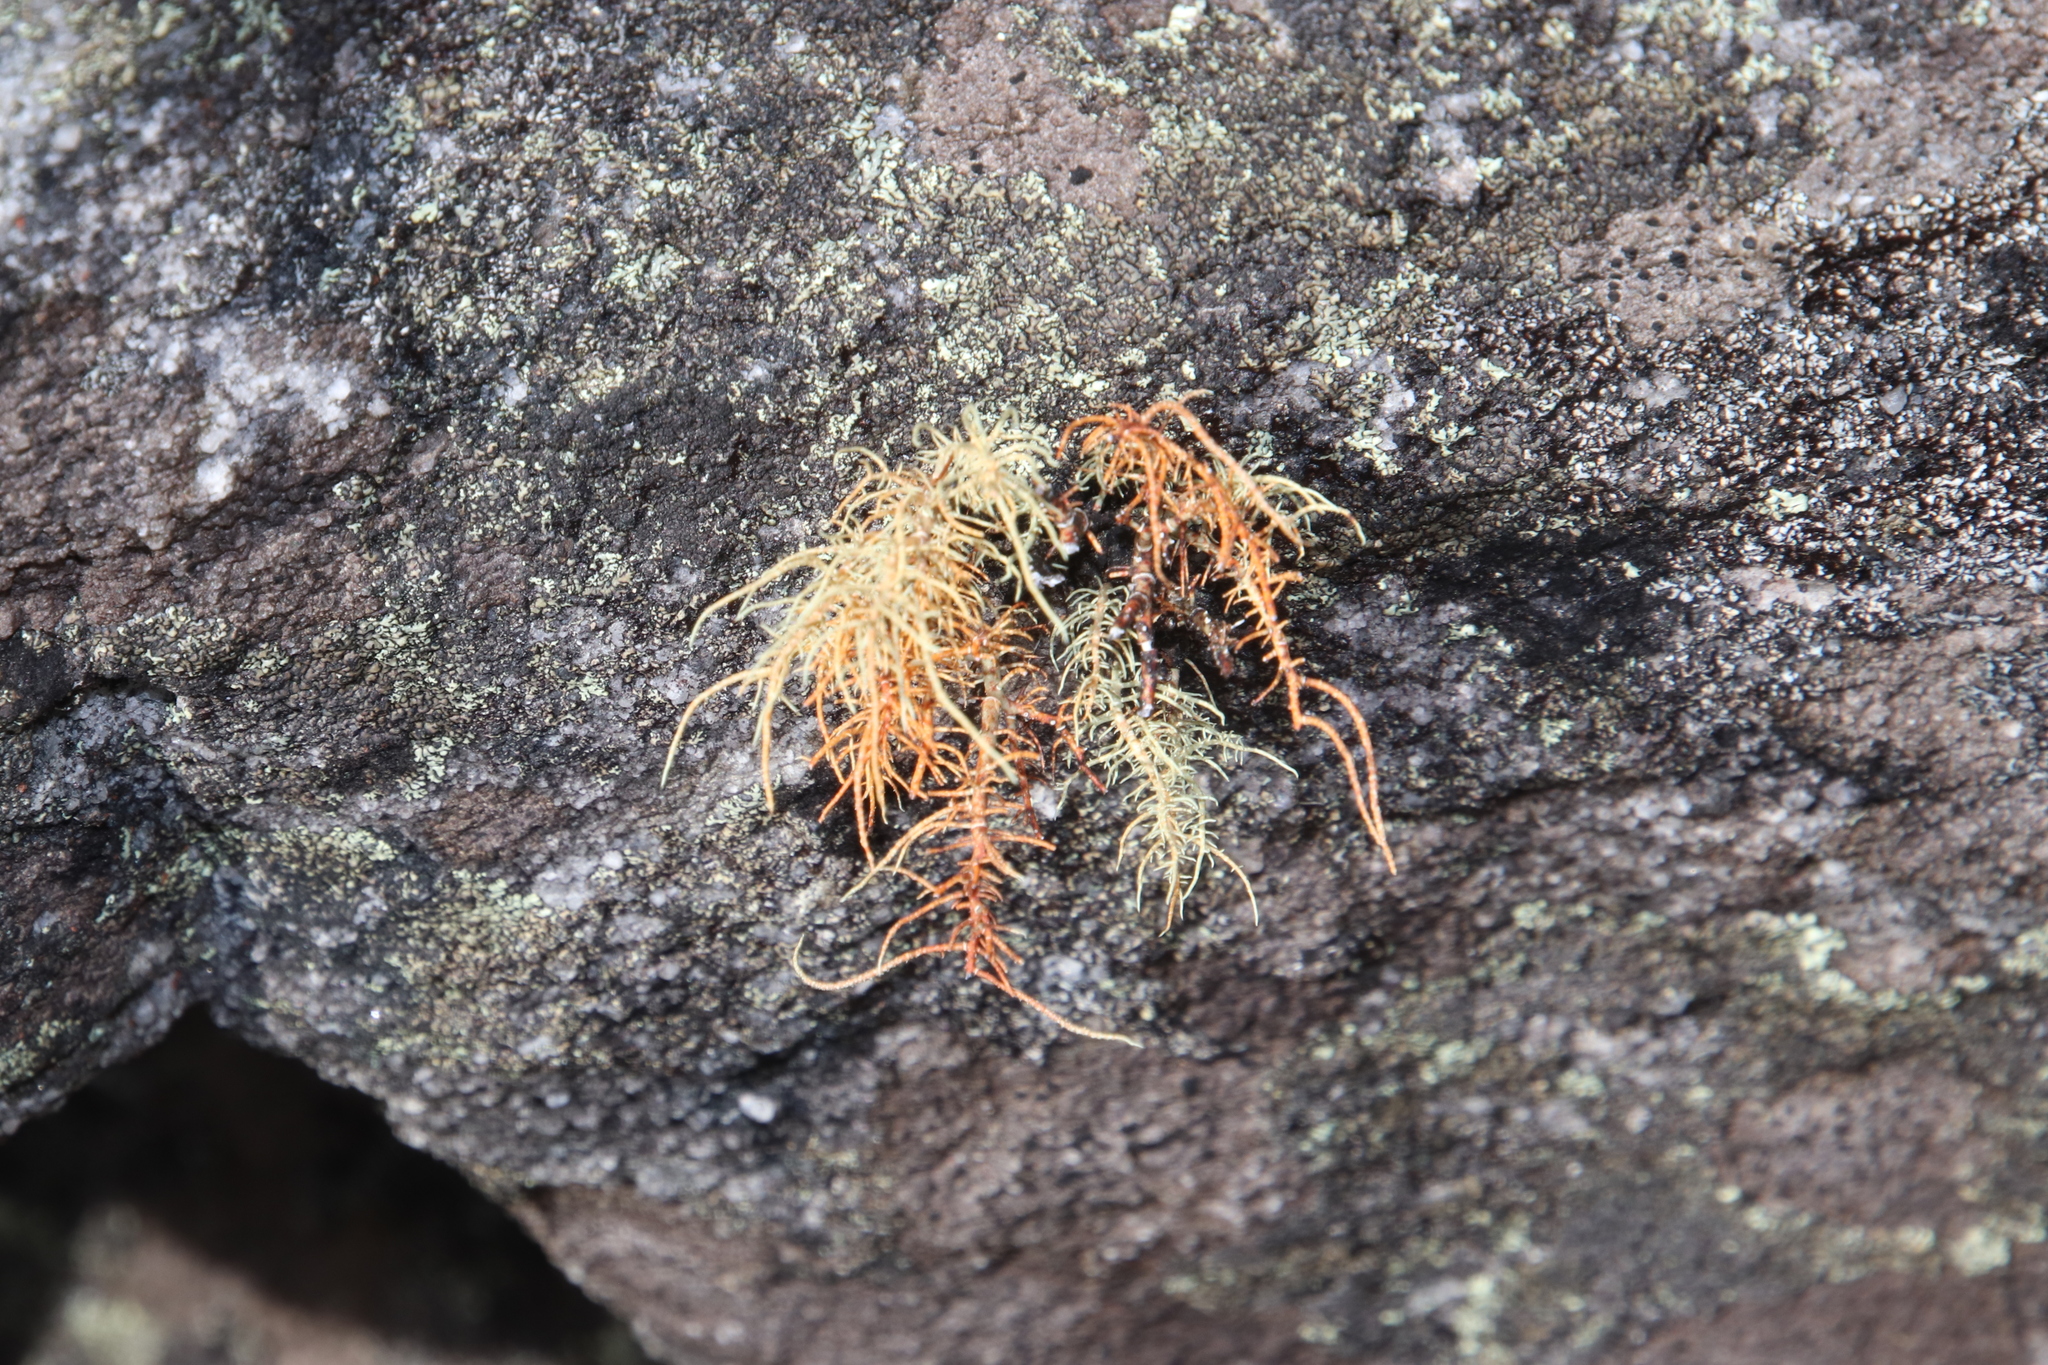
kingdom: Fungi
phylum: Ascomycota
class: Lecanoromycetes
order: Lecanorales
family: Parmeliaceae
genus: Usnea
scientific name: Usnea maculata
